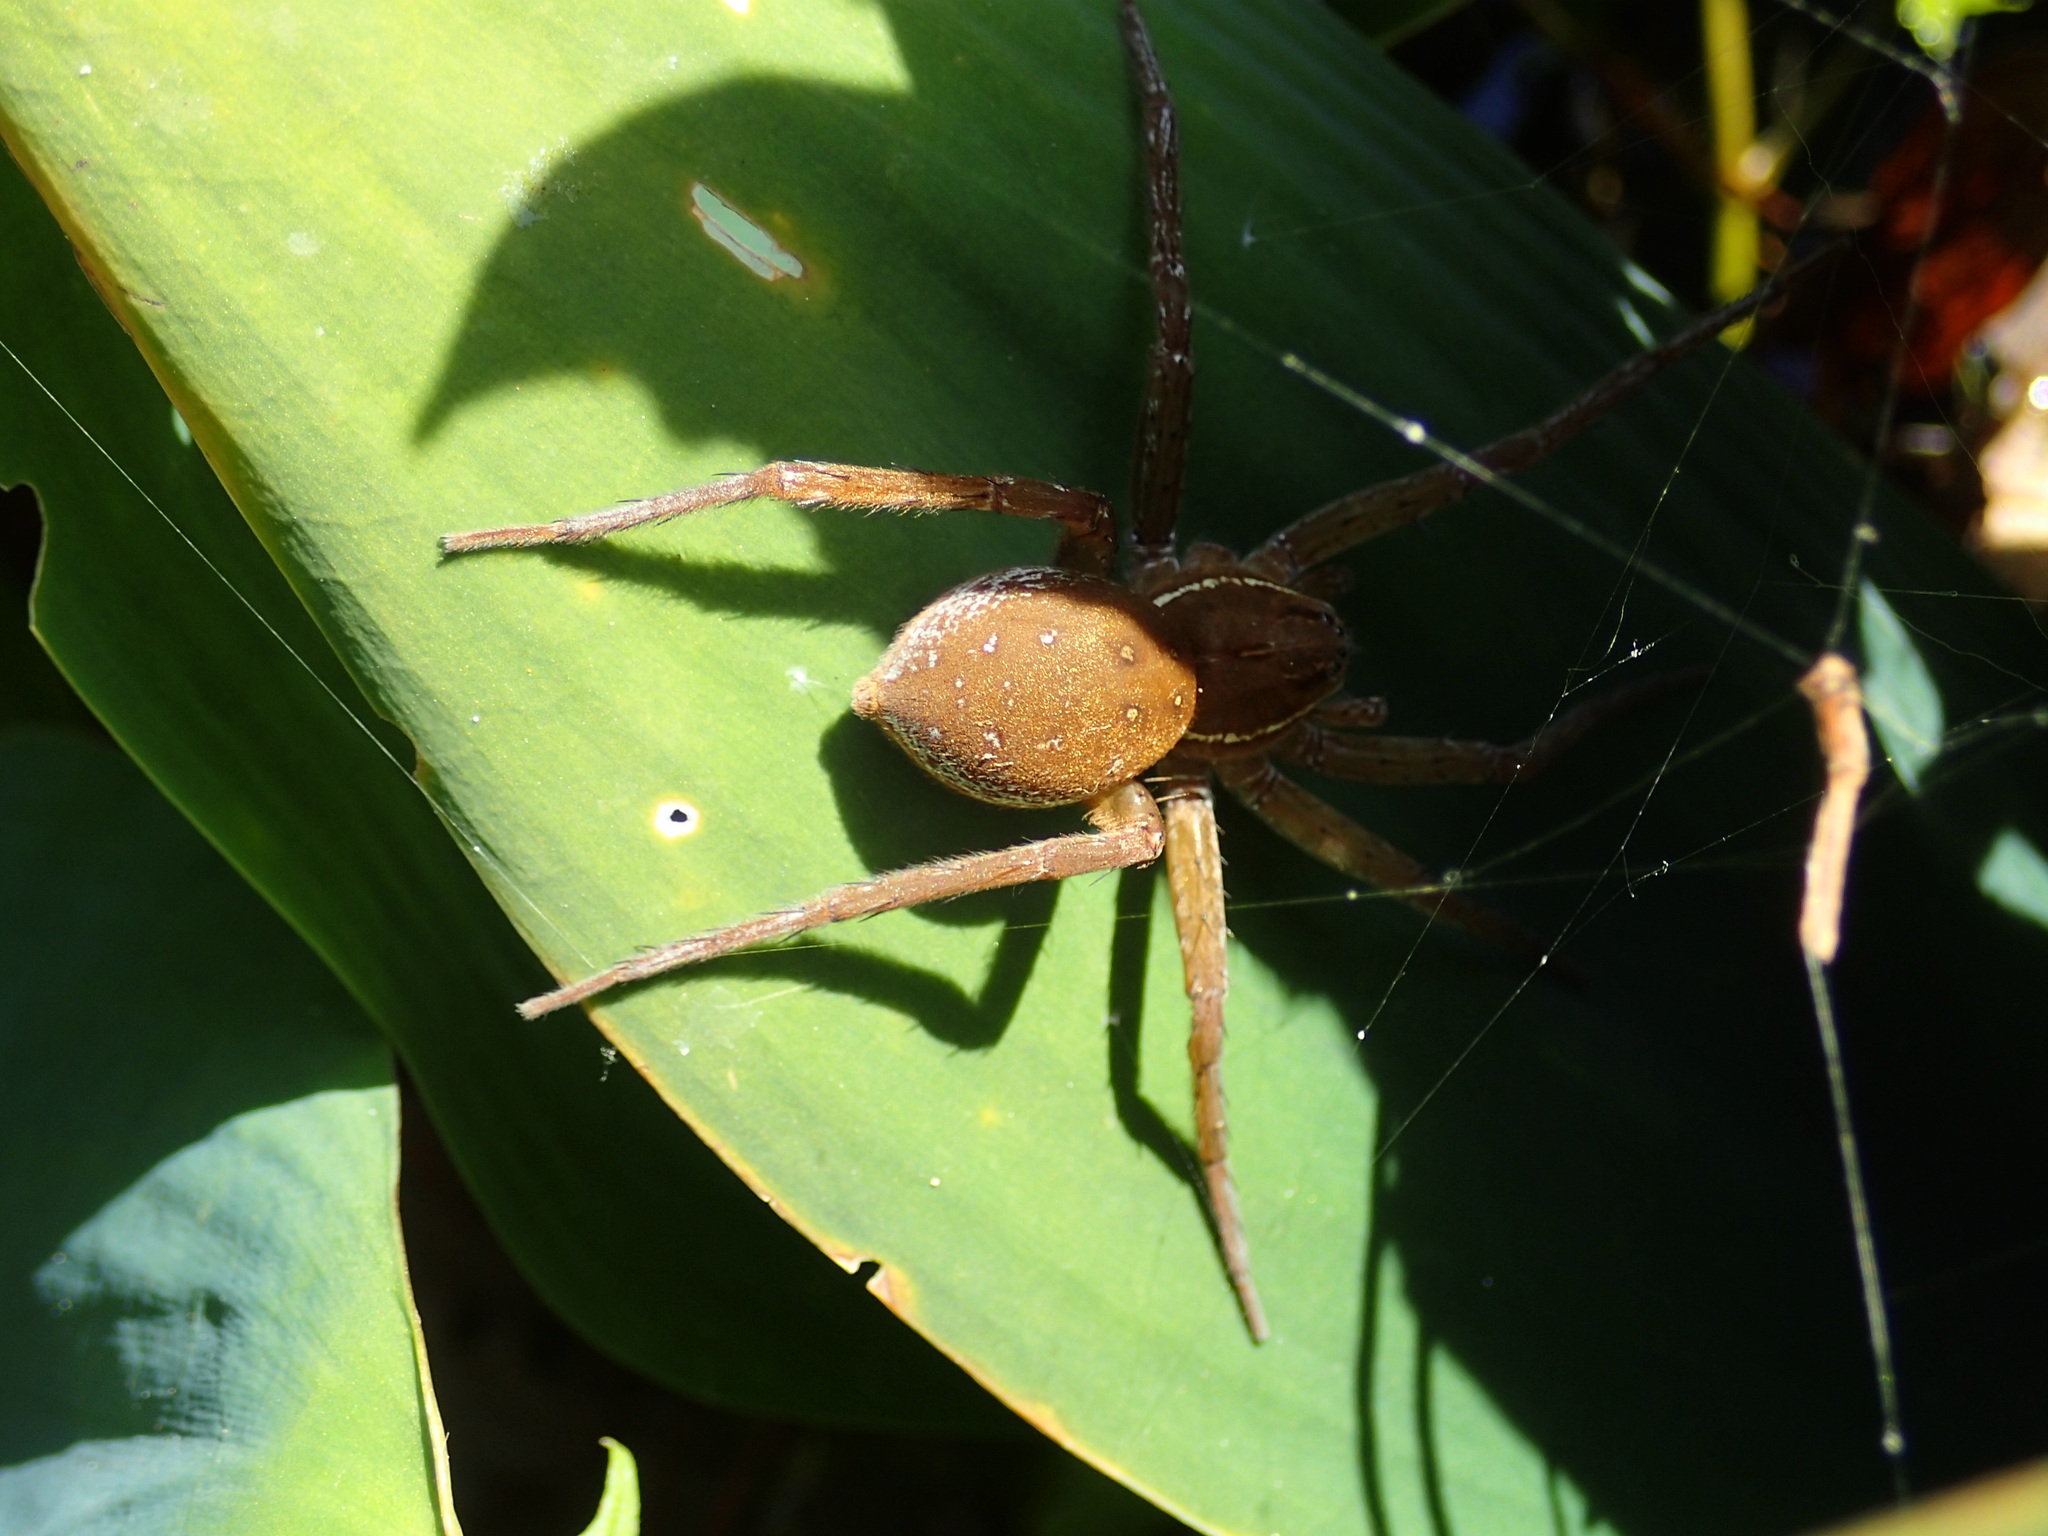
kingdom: Animalia
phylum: Arthropoda
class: Arachnida
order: Araneae
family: Pisauridae
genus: Dolomedes
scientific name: Dolomedes triton
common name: Six-spotted fishing spider
